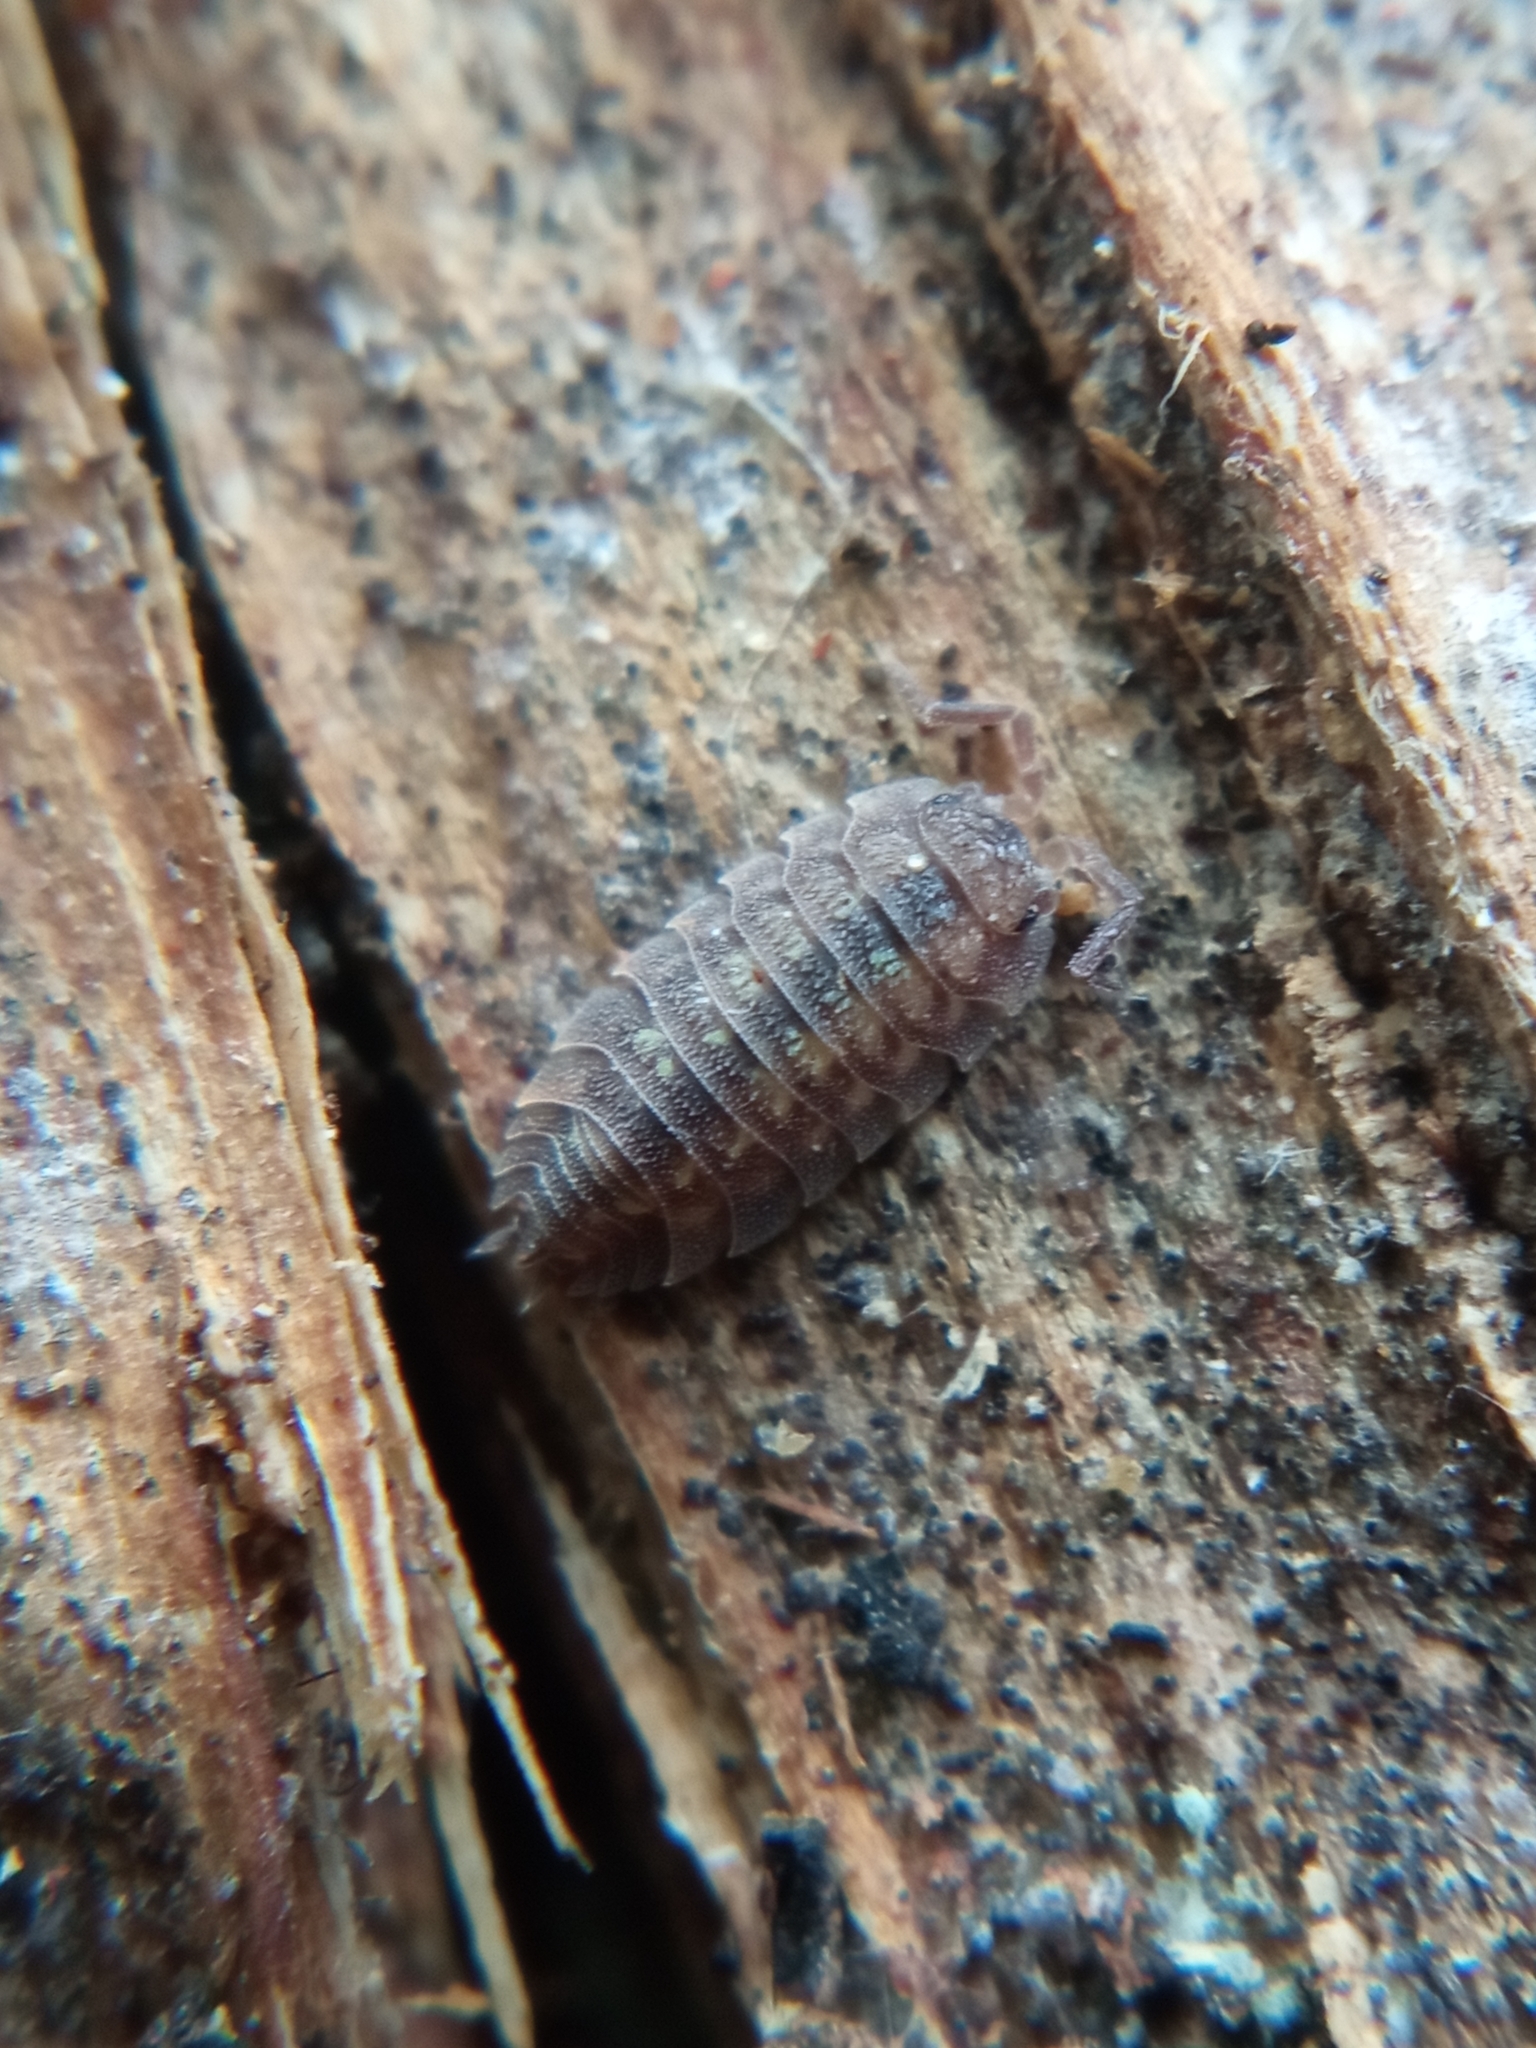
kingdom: Animalia
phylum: Arthropoda
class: Malacostraca
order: Isopoda
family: Oniscidae
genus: Oniscus
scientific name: Oniscus asellus
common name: Common shiny woodlouse
